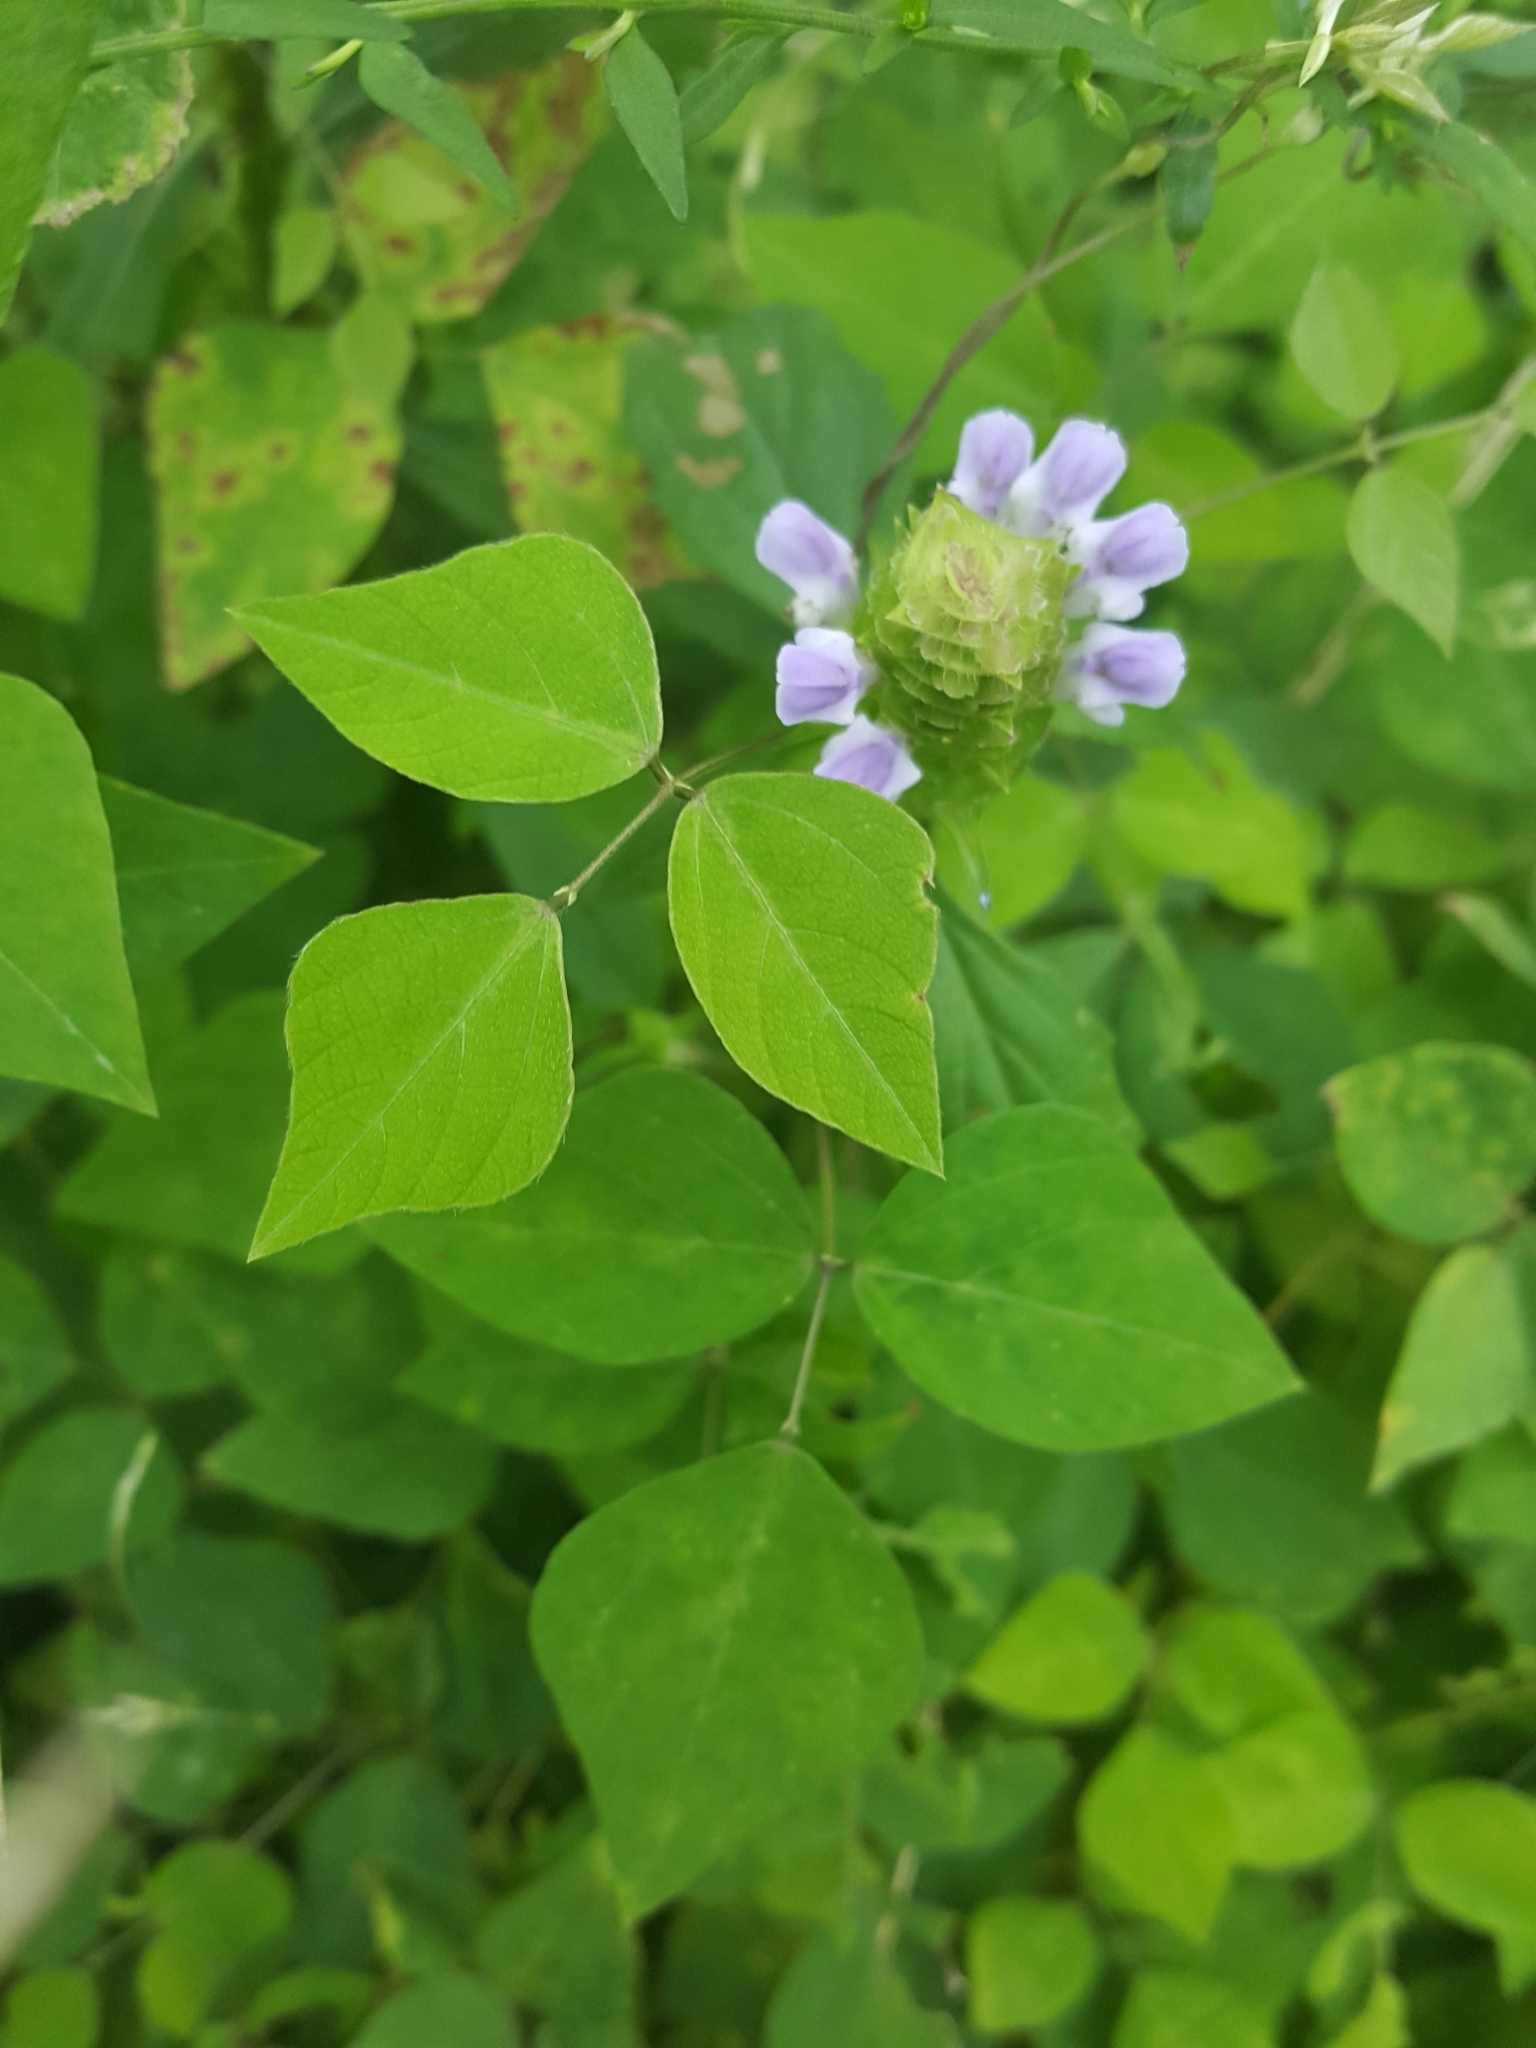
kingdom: Plantae
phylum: Tracheophyta
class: Magnoliopsida
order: Lamiales
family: Lamiaceae
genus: Prunella
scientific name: Prunella vulgaris
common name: Heal-all
